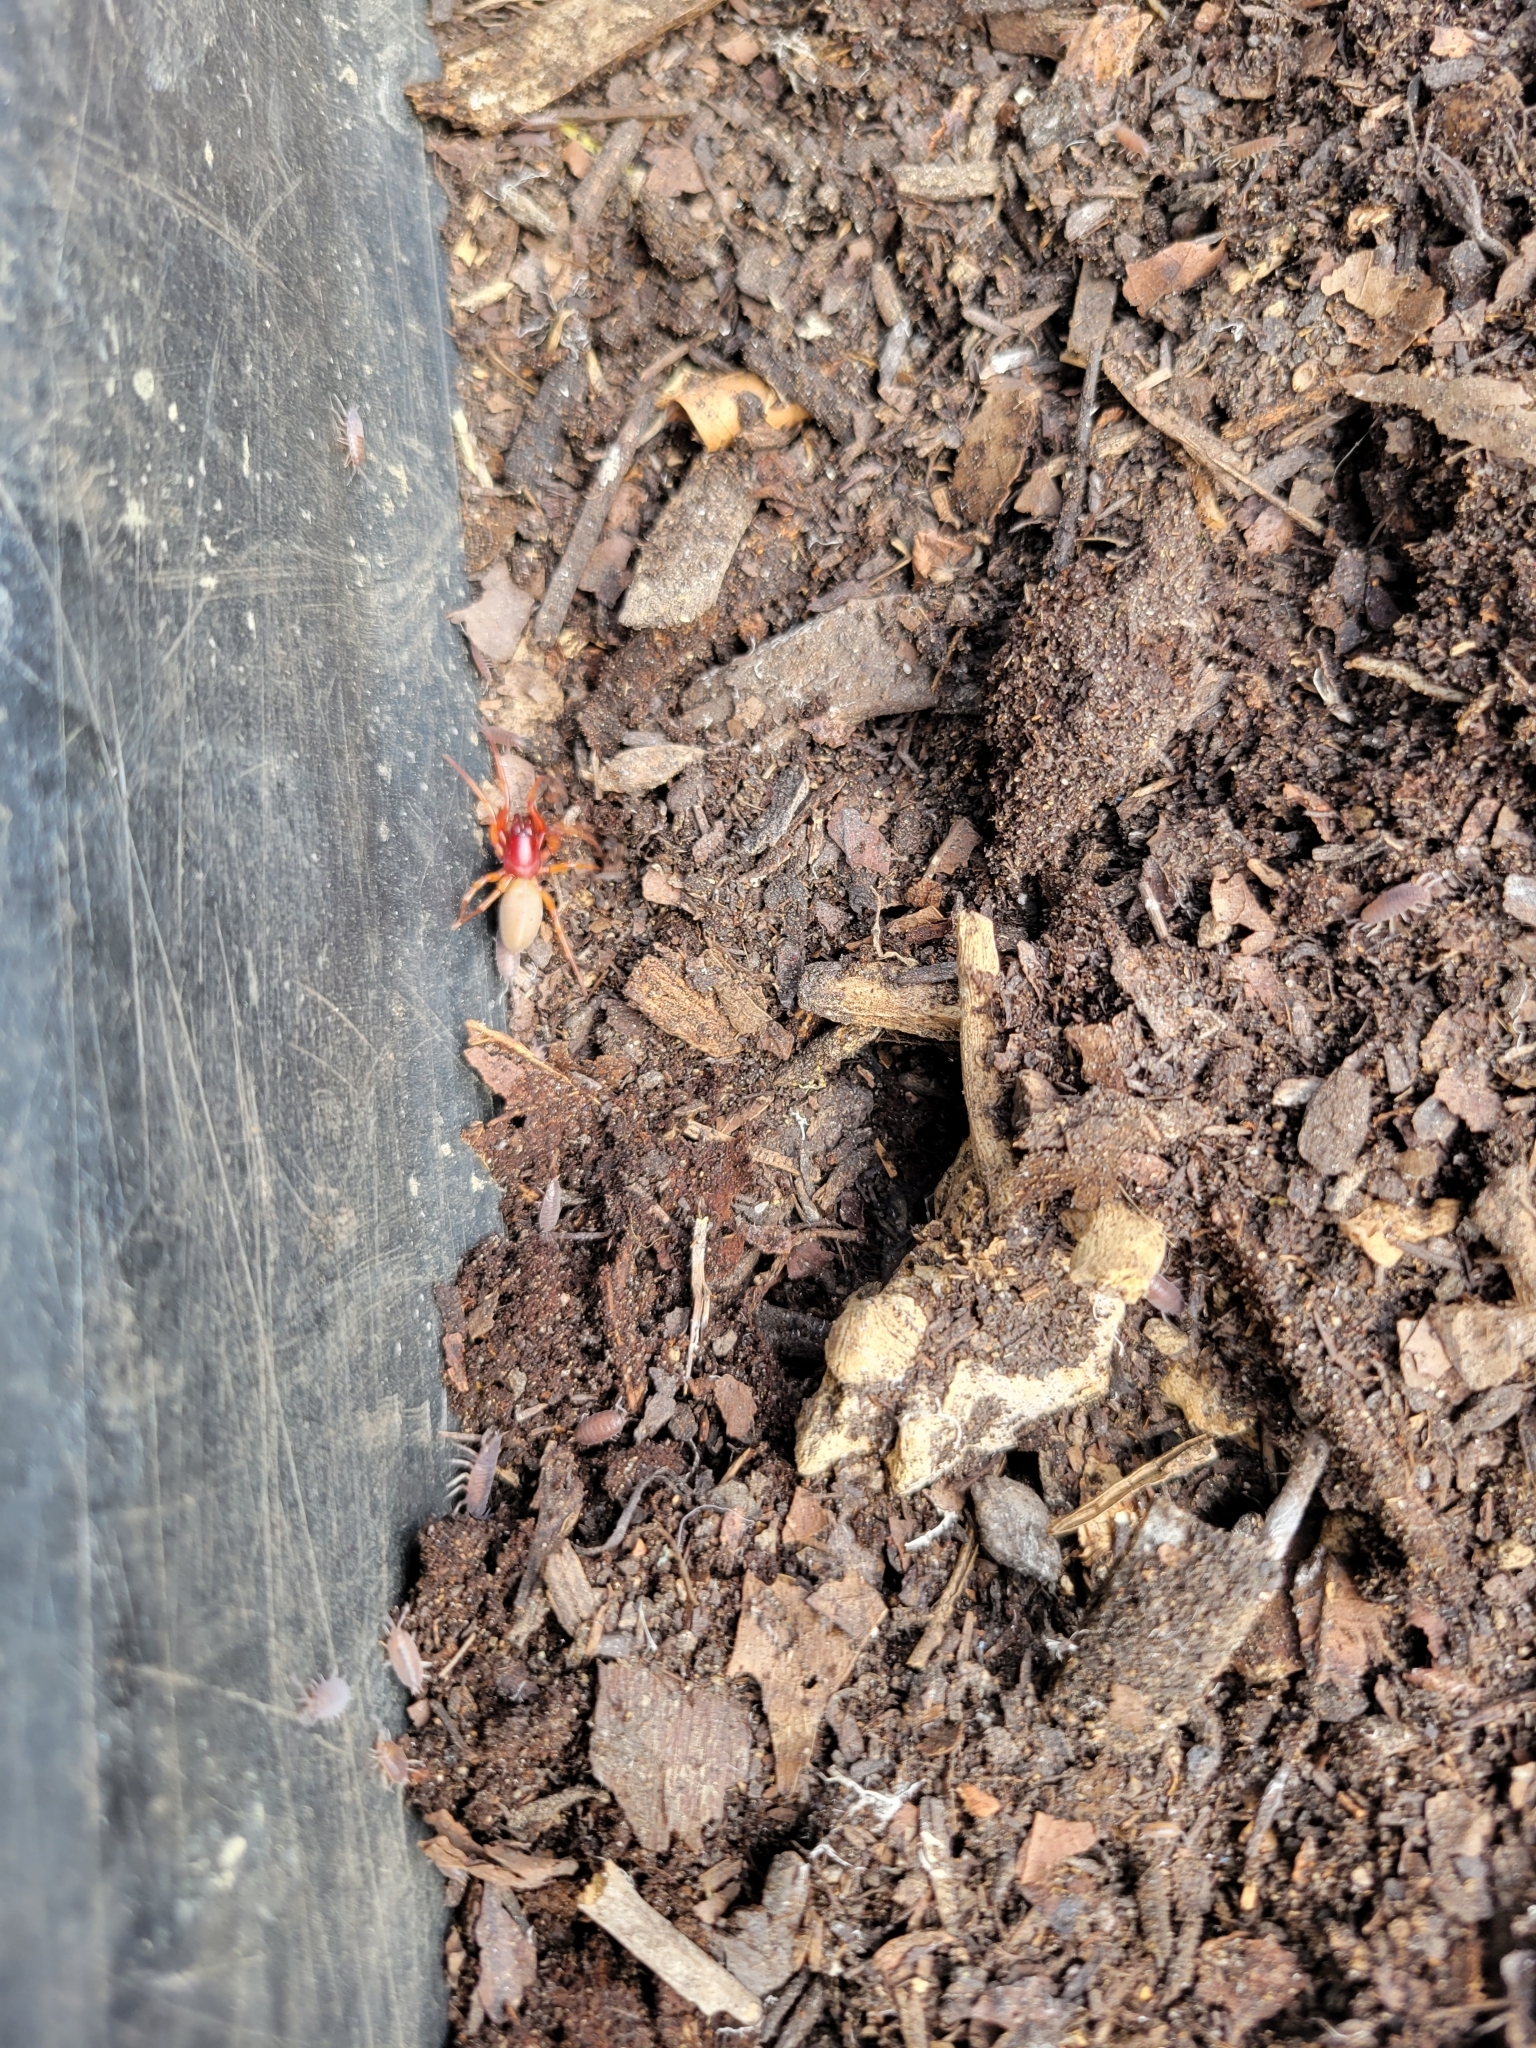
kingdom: Animalia
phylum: Arthropoda
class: Arachnida
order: Araneae
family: Dysderidae
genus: Dysdera
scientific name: Dysdera crocata
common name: Woodlouse spider
